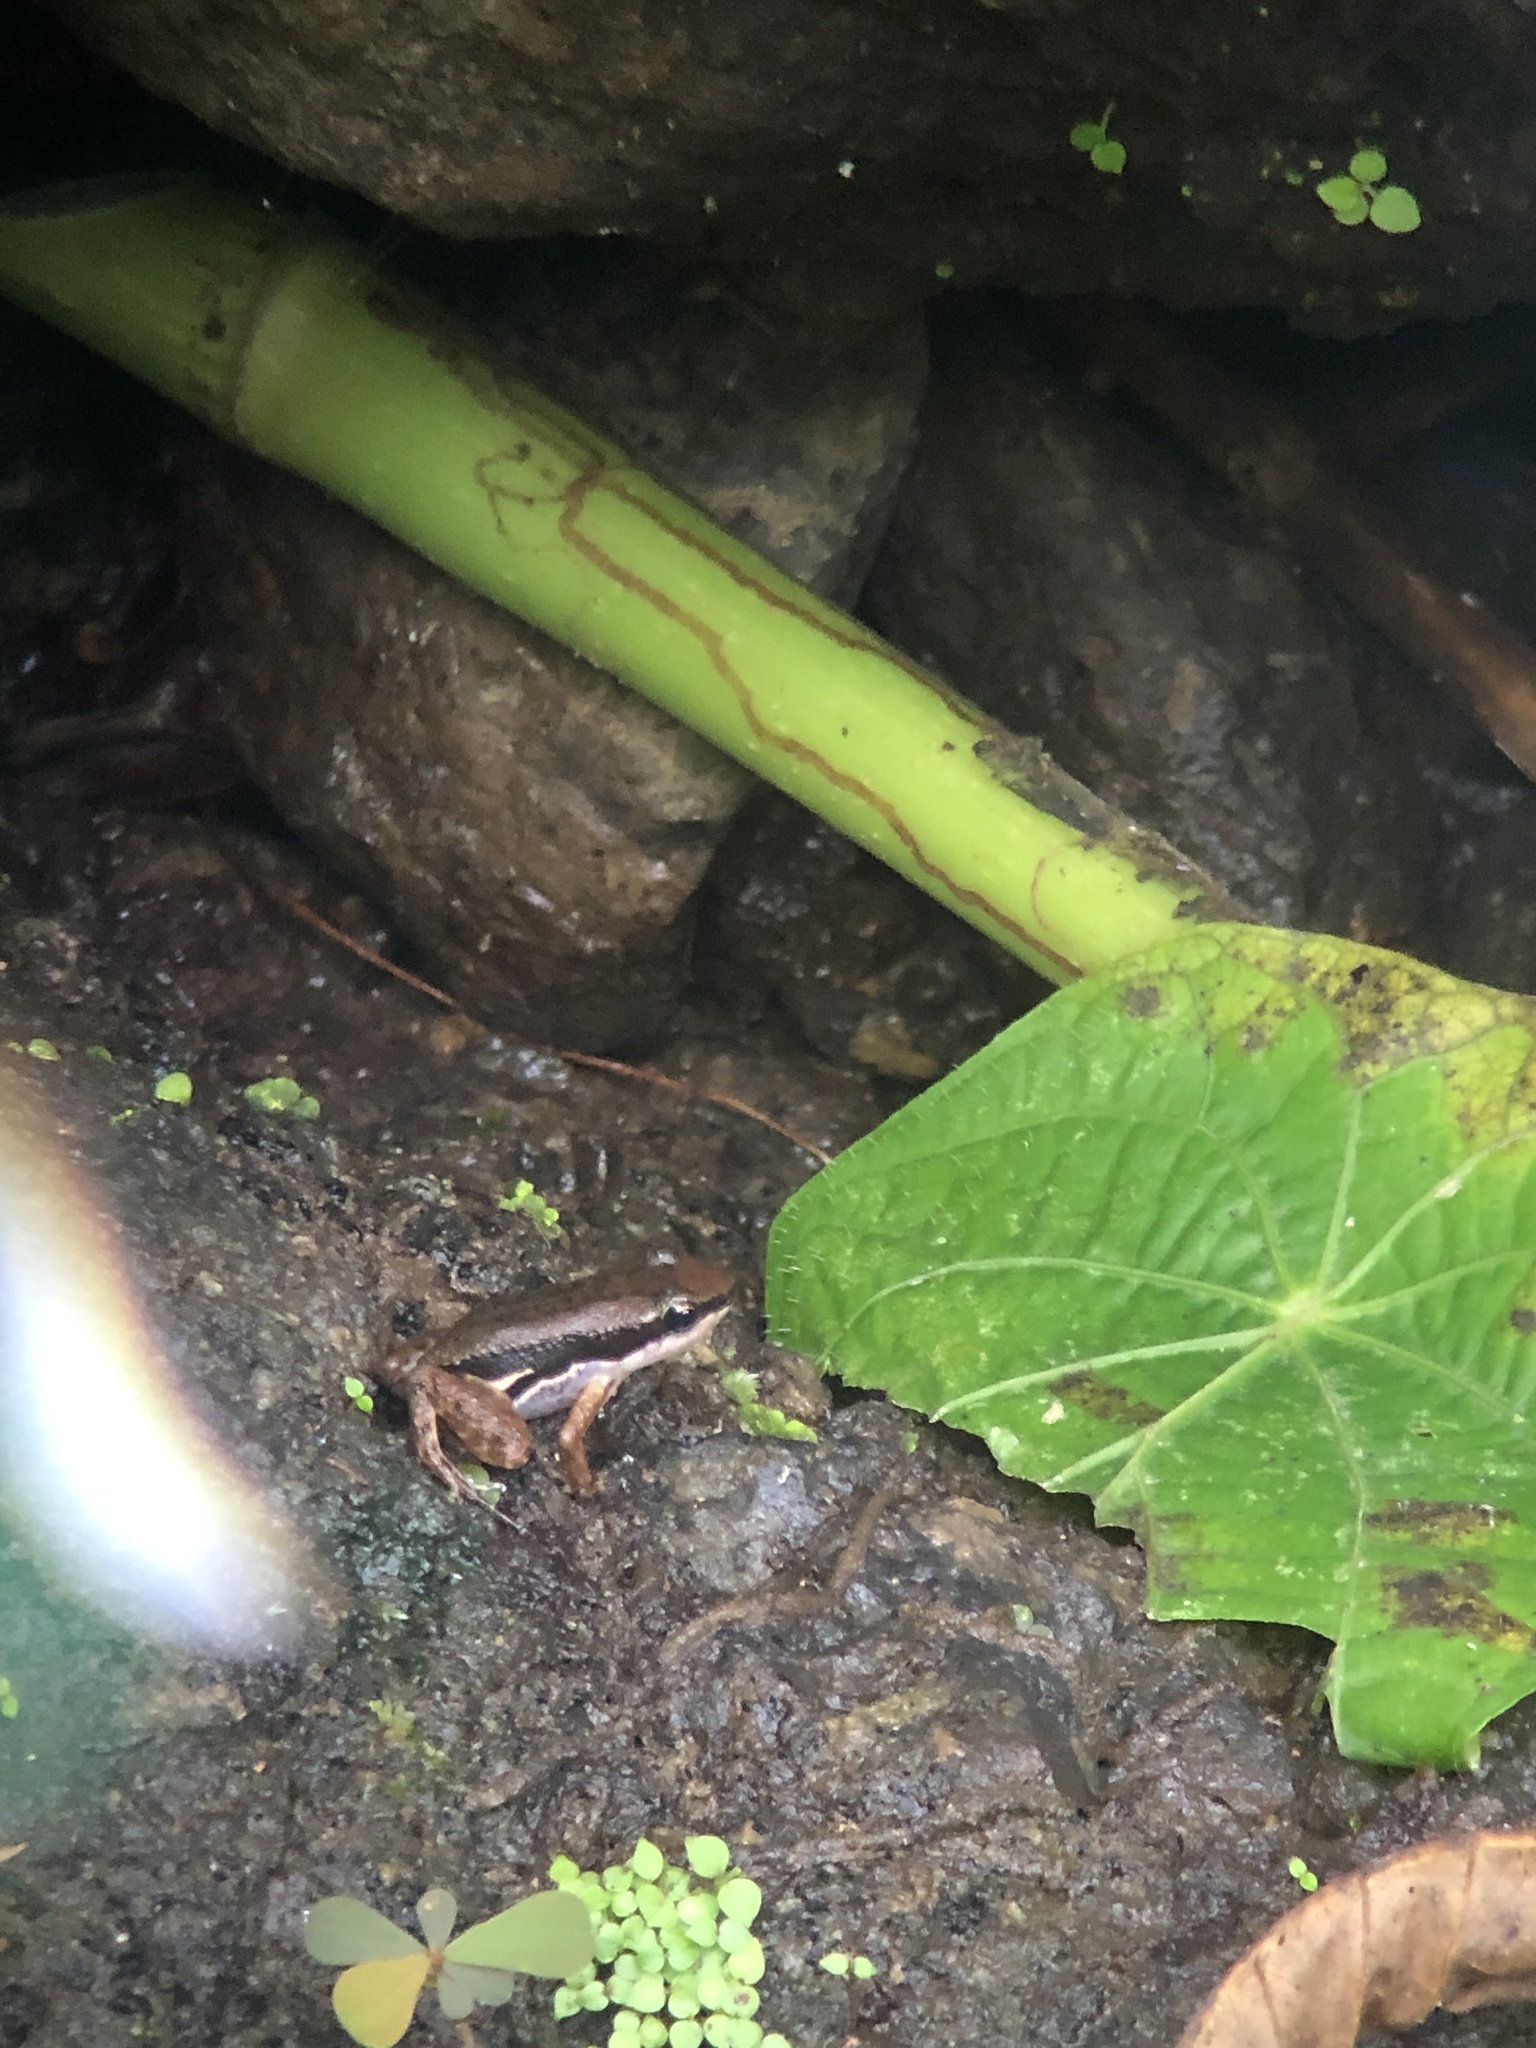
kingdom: Animalia
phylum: Chordata
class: Amphibia
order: Anura
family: Dendrobatidae
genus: Silverstoneia
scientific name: Silverstoneia flotator
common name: Rainforest rocket frog
